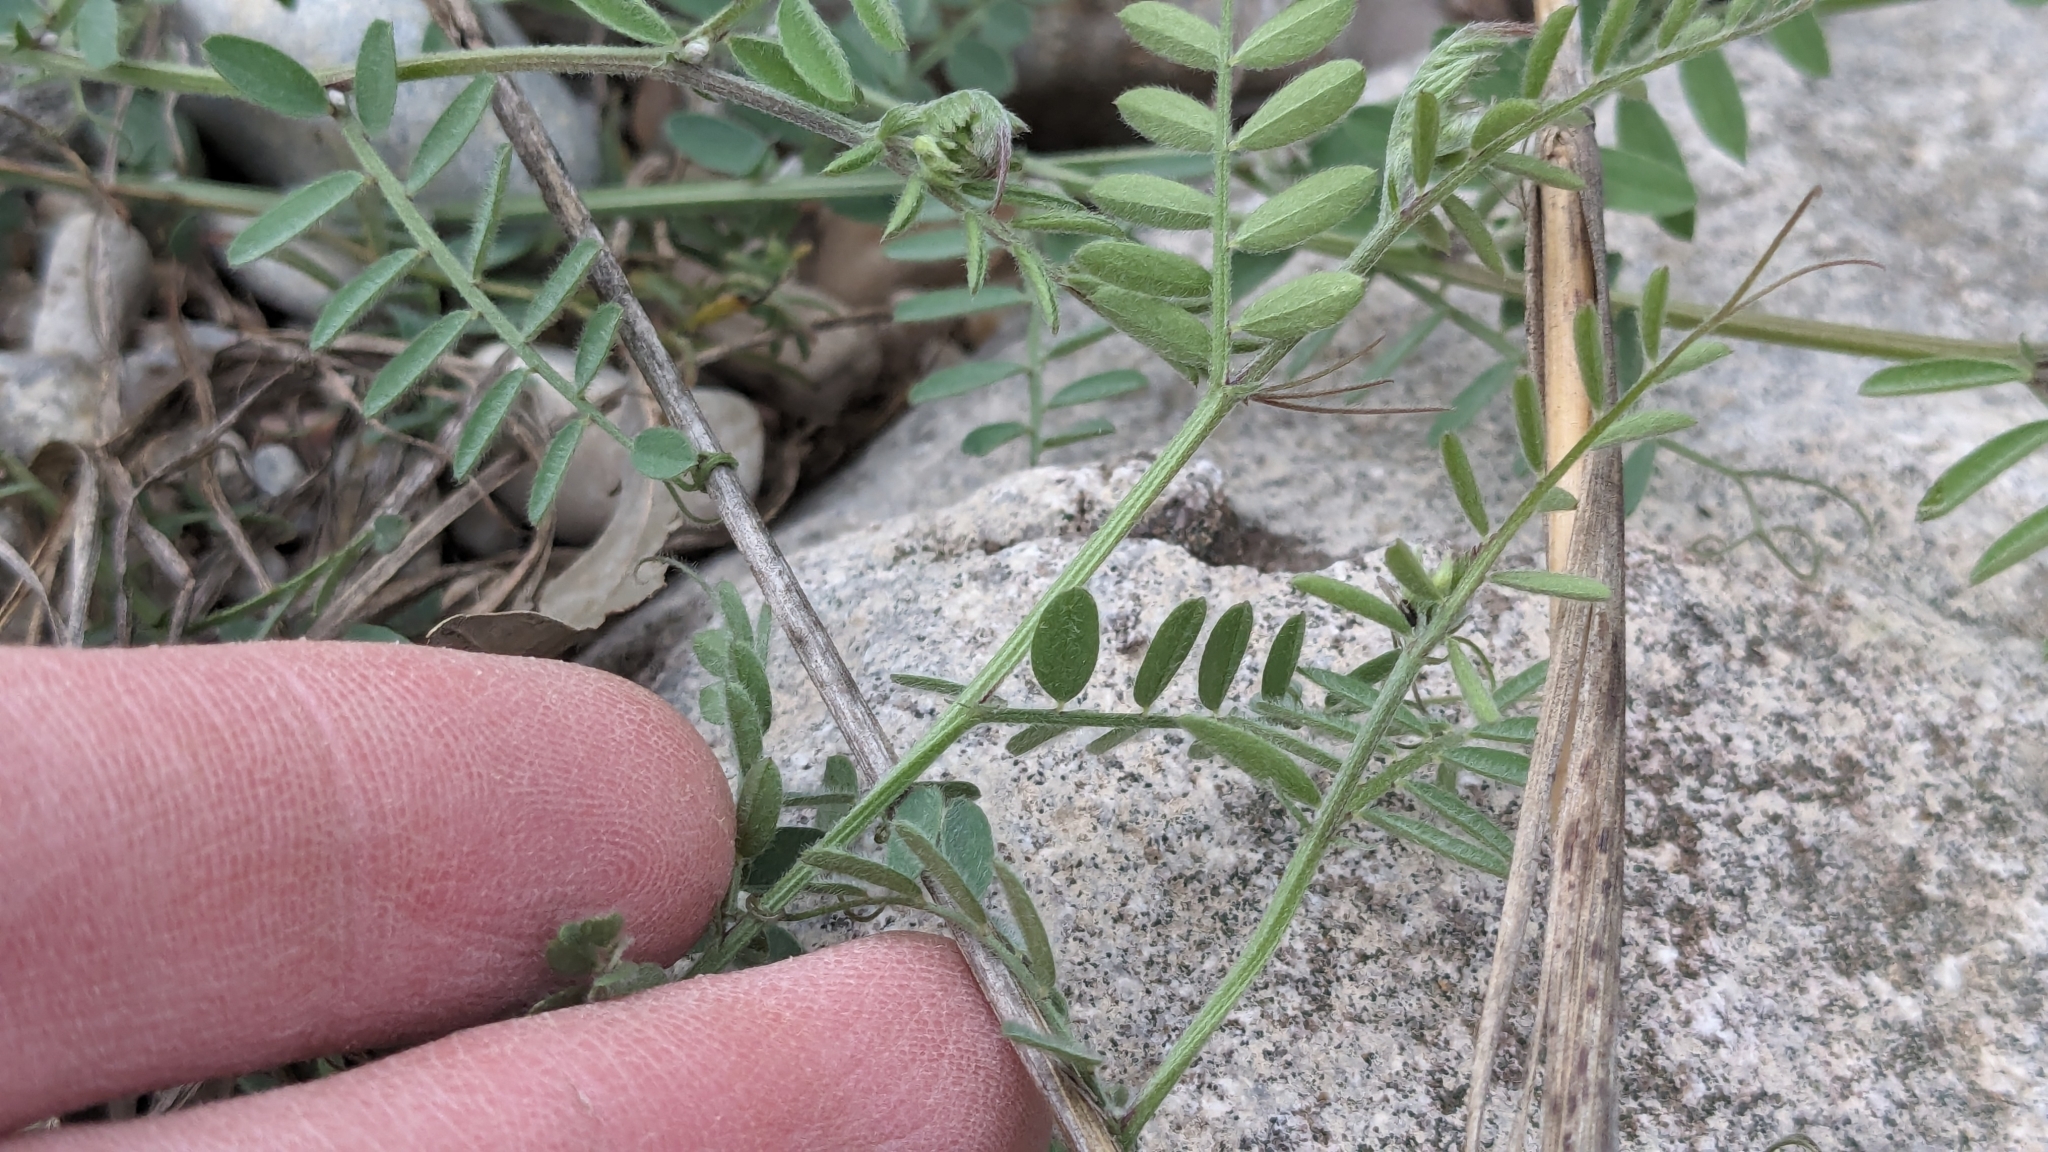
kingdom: Plantae
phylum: Tracheophyta
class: Magnoliopsida
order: Fabales
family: Fabaceae
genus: Vicia
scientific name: Vicia ludoviciana
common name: Louisiana vetch
